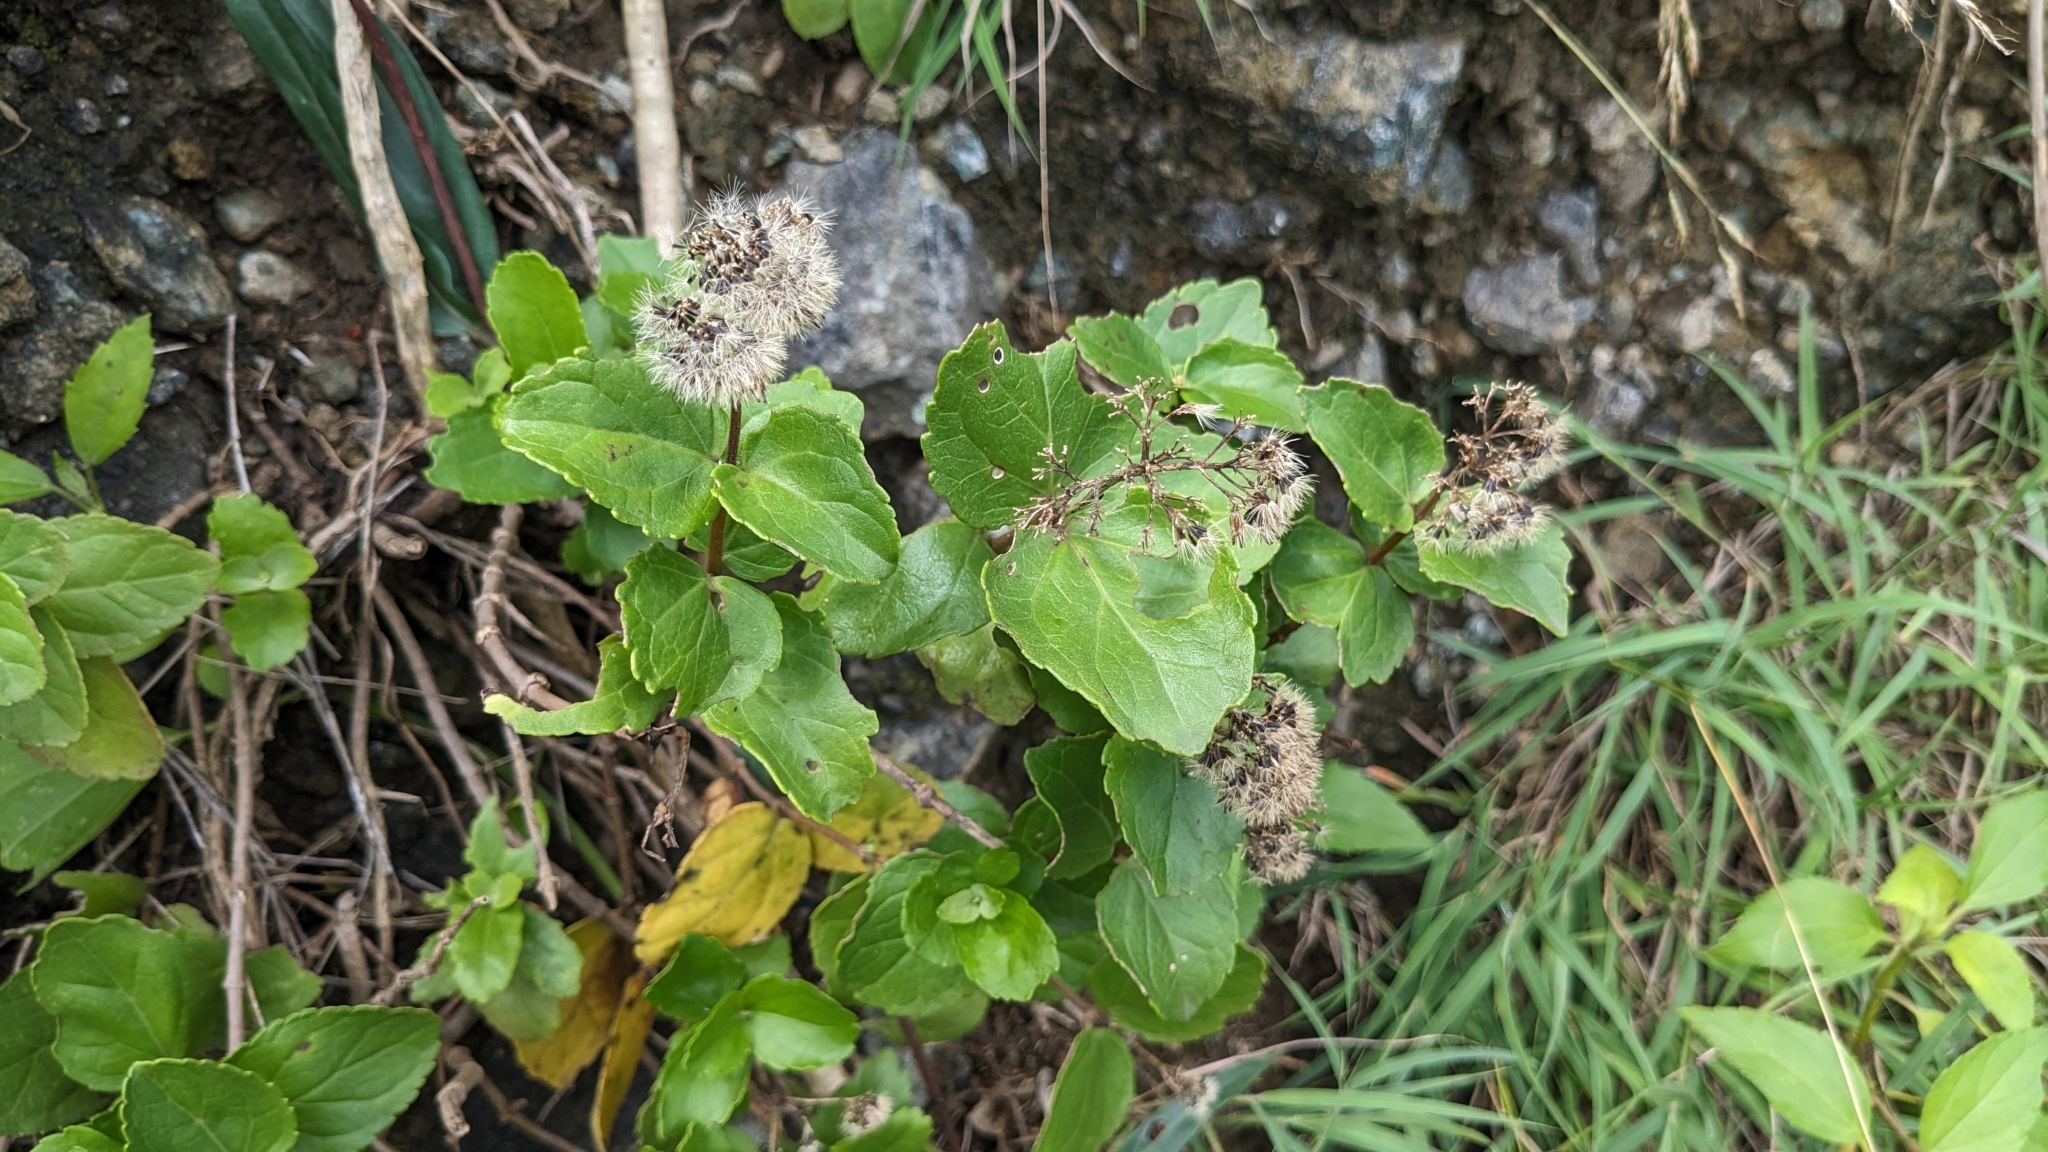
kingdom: Plantae
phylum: Tracheophyta
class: Magnoliopsida
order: Asterales
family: Asteraceae
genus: Eupatorium
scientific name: Eupatorium hualienense
